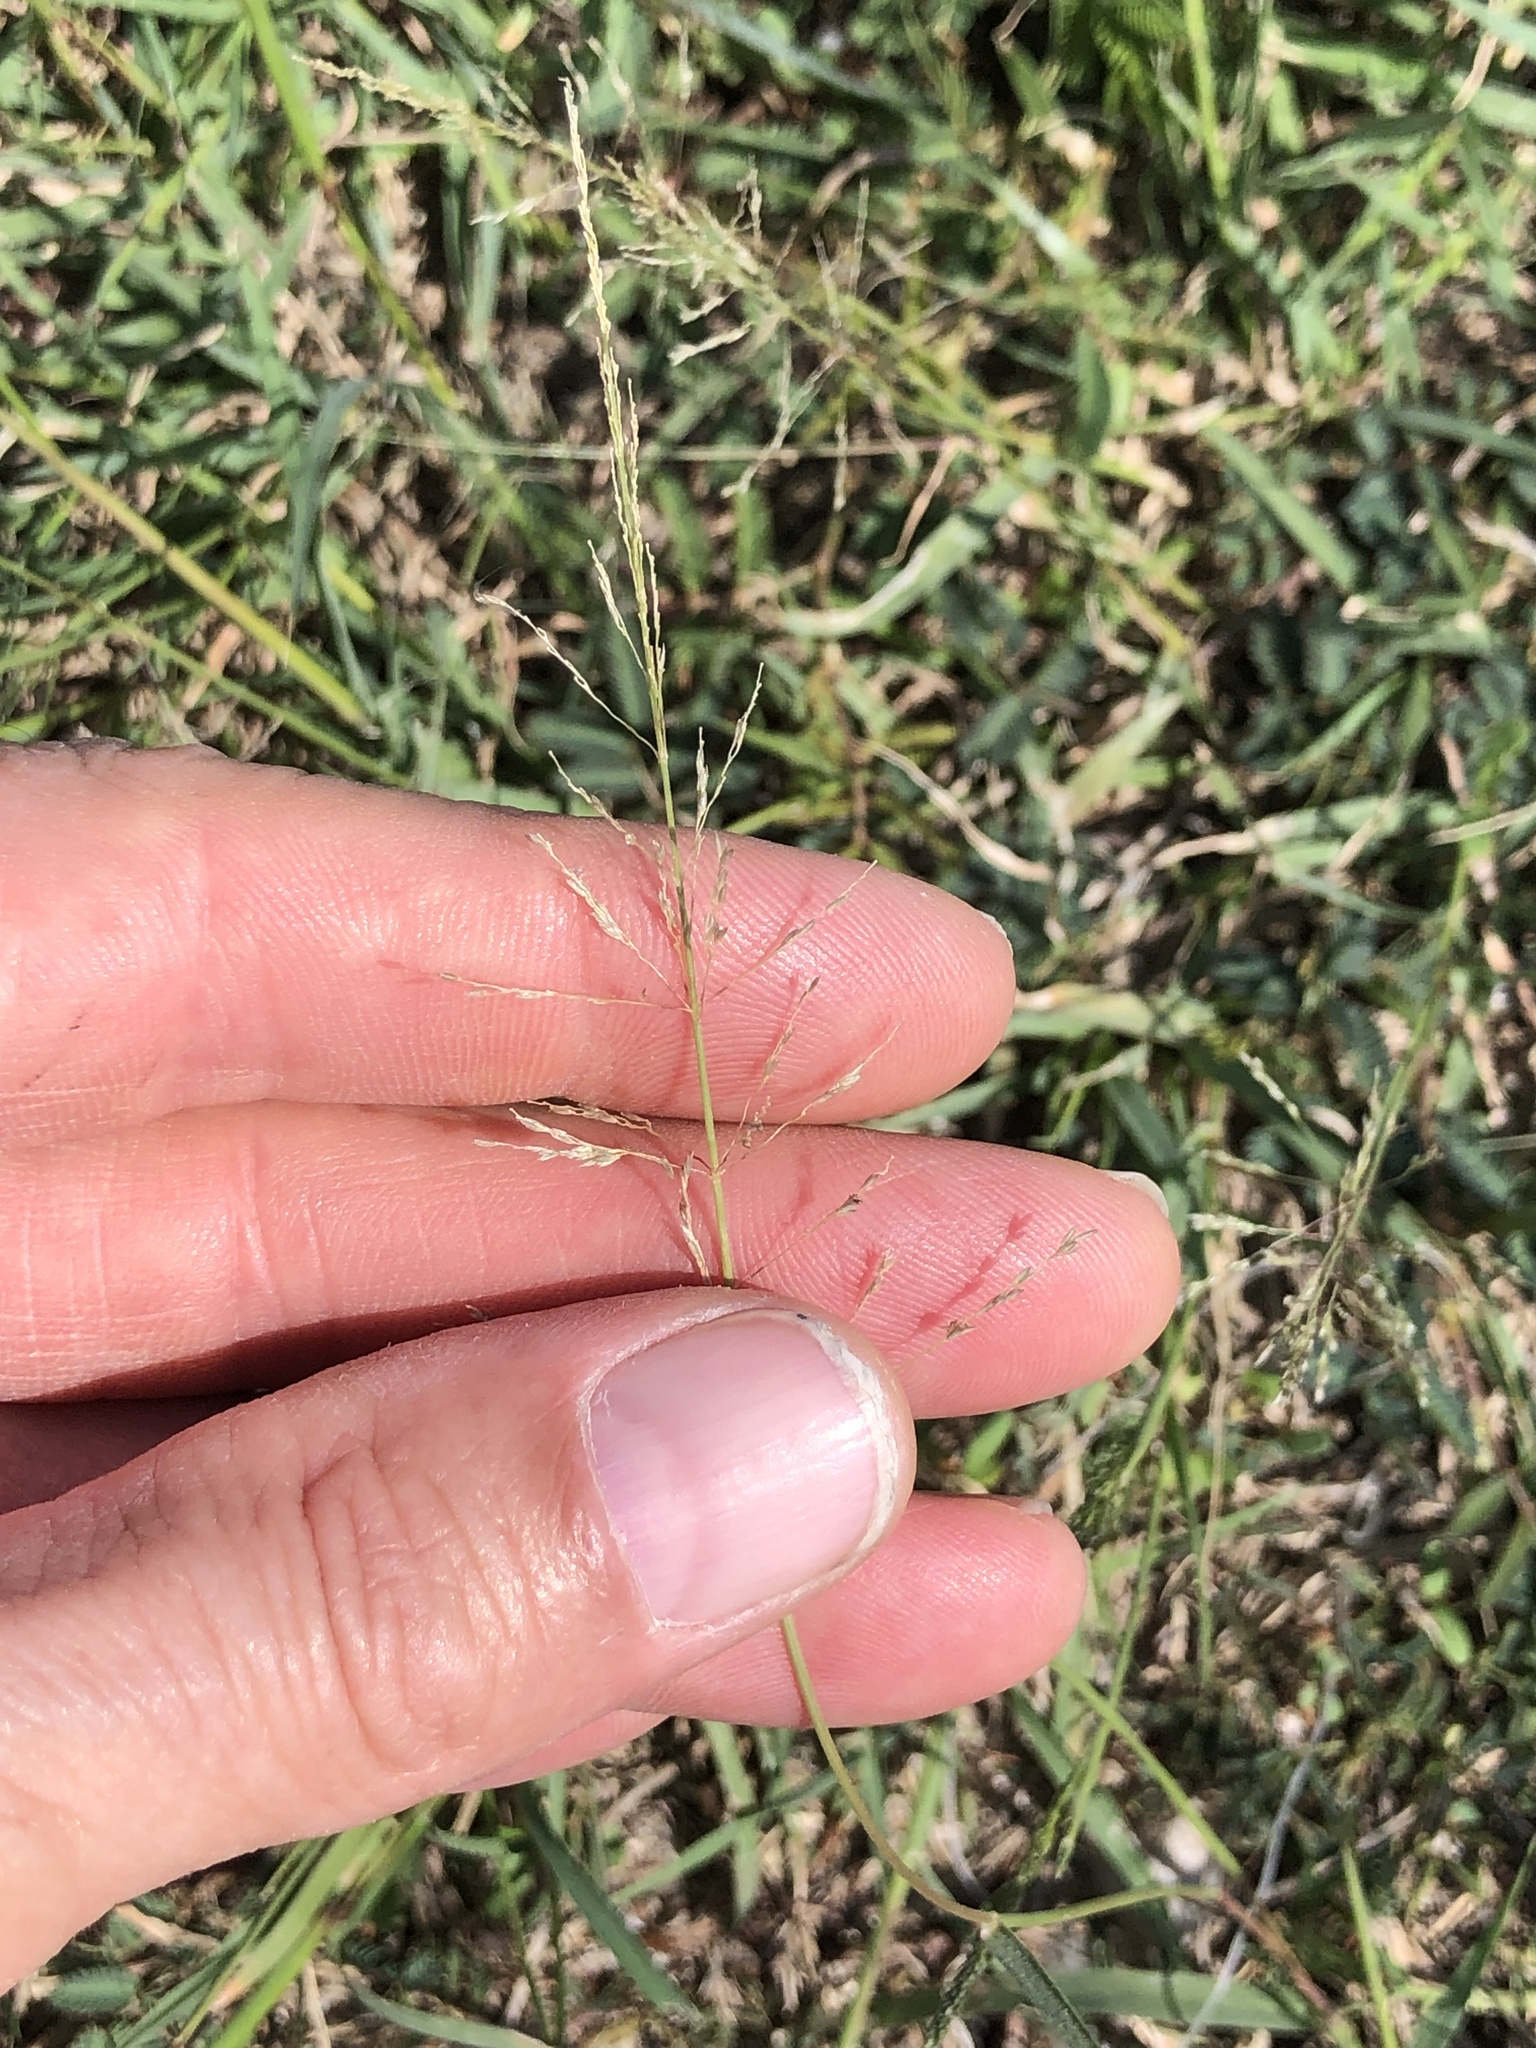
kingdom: Plantae
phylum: Tracheophyta
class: Liliopsida
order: Poales
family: Poaceae
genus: Sporobolus
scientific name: Sporobolus pyramidatus
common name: Whorled dropseed
